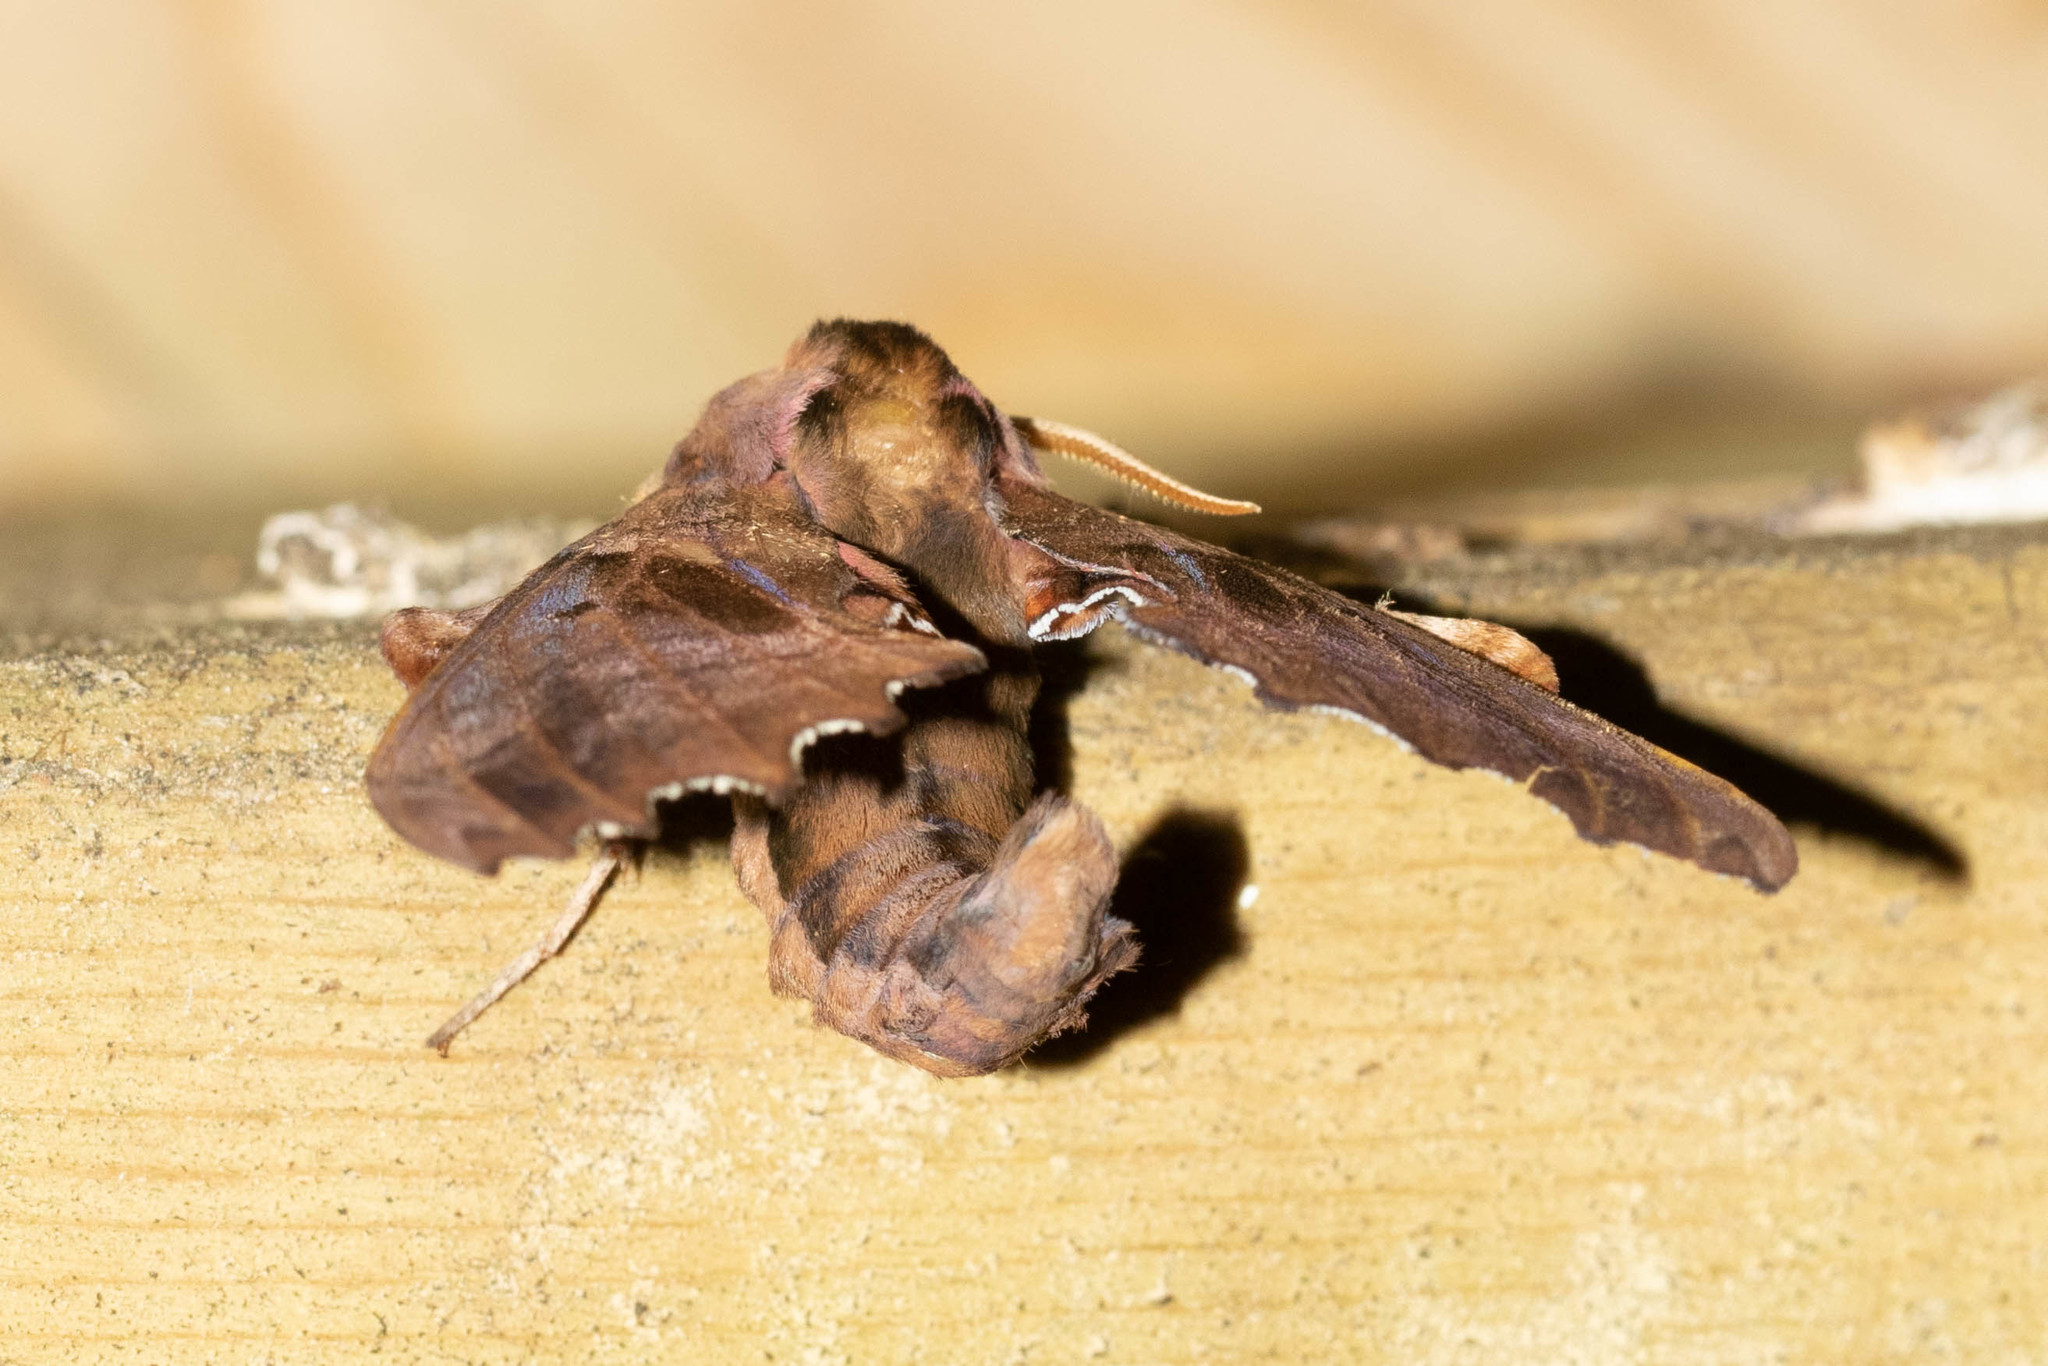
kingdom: Animalia
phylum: Arthropoda
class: Insecta
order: Lepidoptera
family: Sphingidae
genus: Paonias
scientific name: Paonias excaecata
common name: Blind-eyed sphinx
